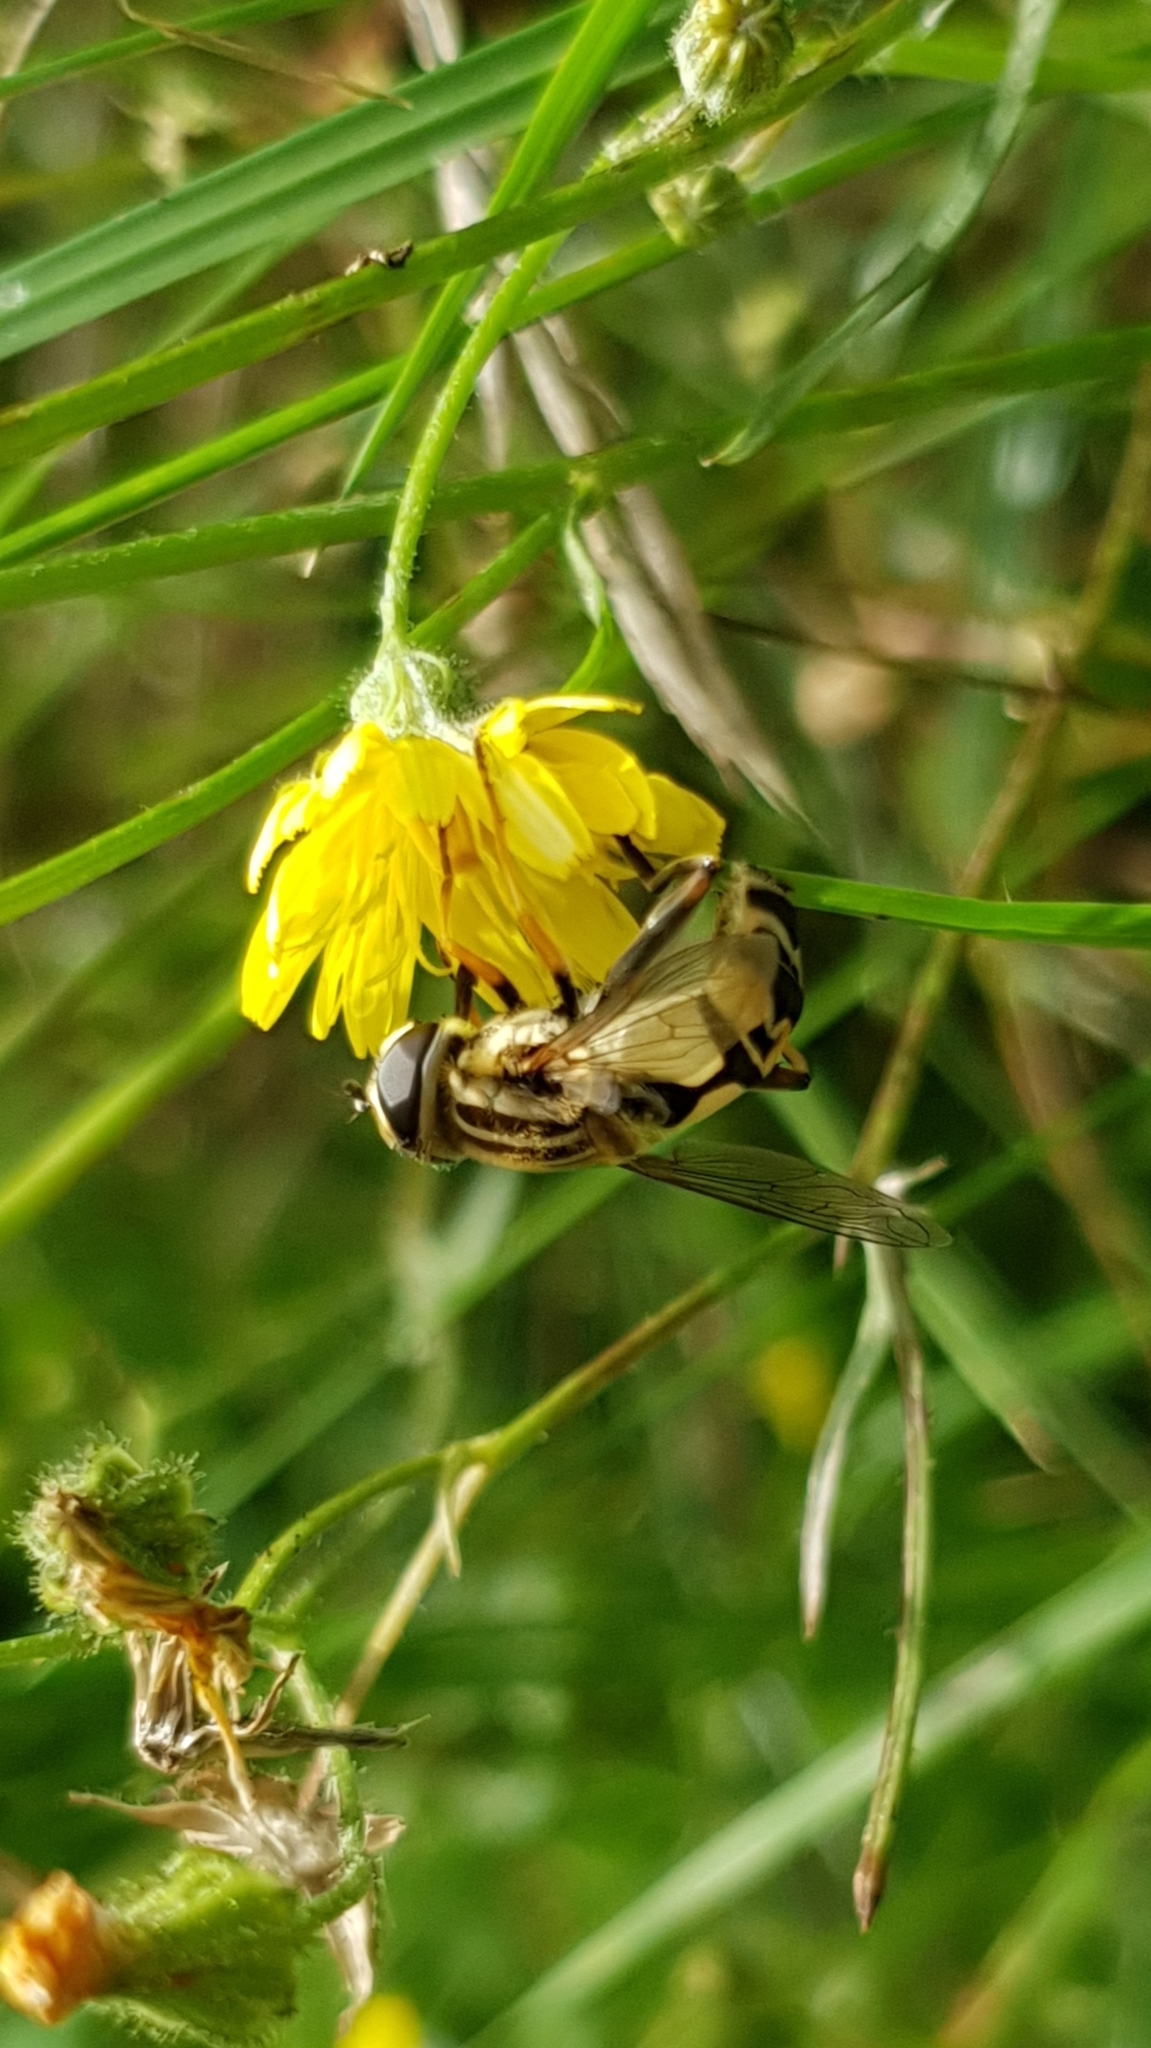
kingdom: Animalia
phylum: Arthropoda
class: Insecta
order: Diptera
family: Syrphidae
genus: Helophilus
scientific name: Helophilus trivittatus
